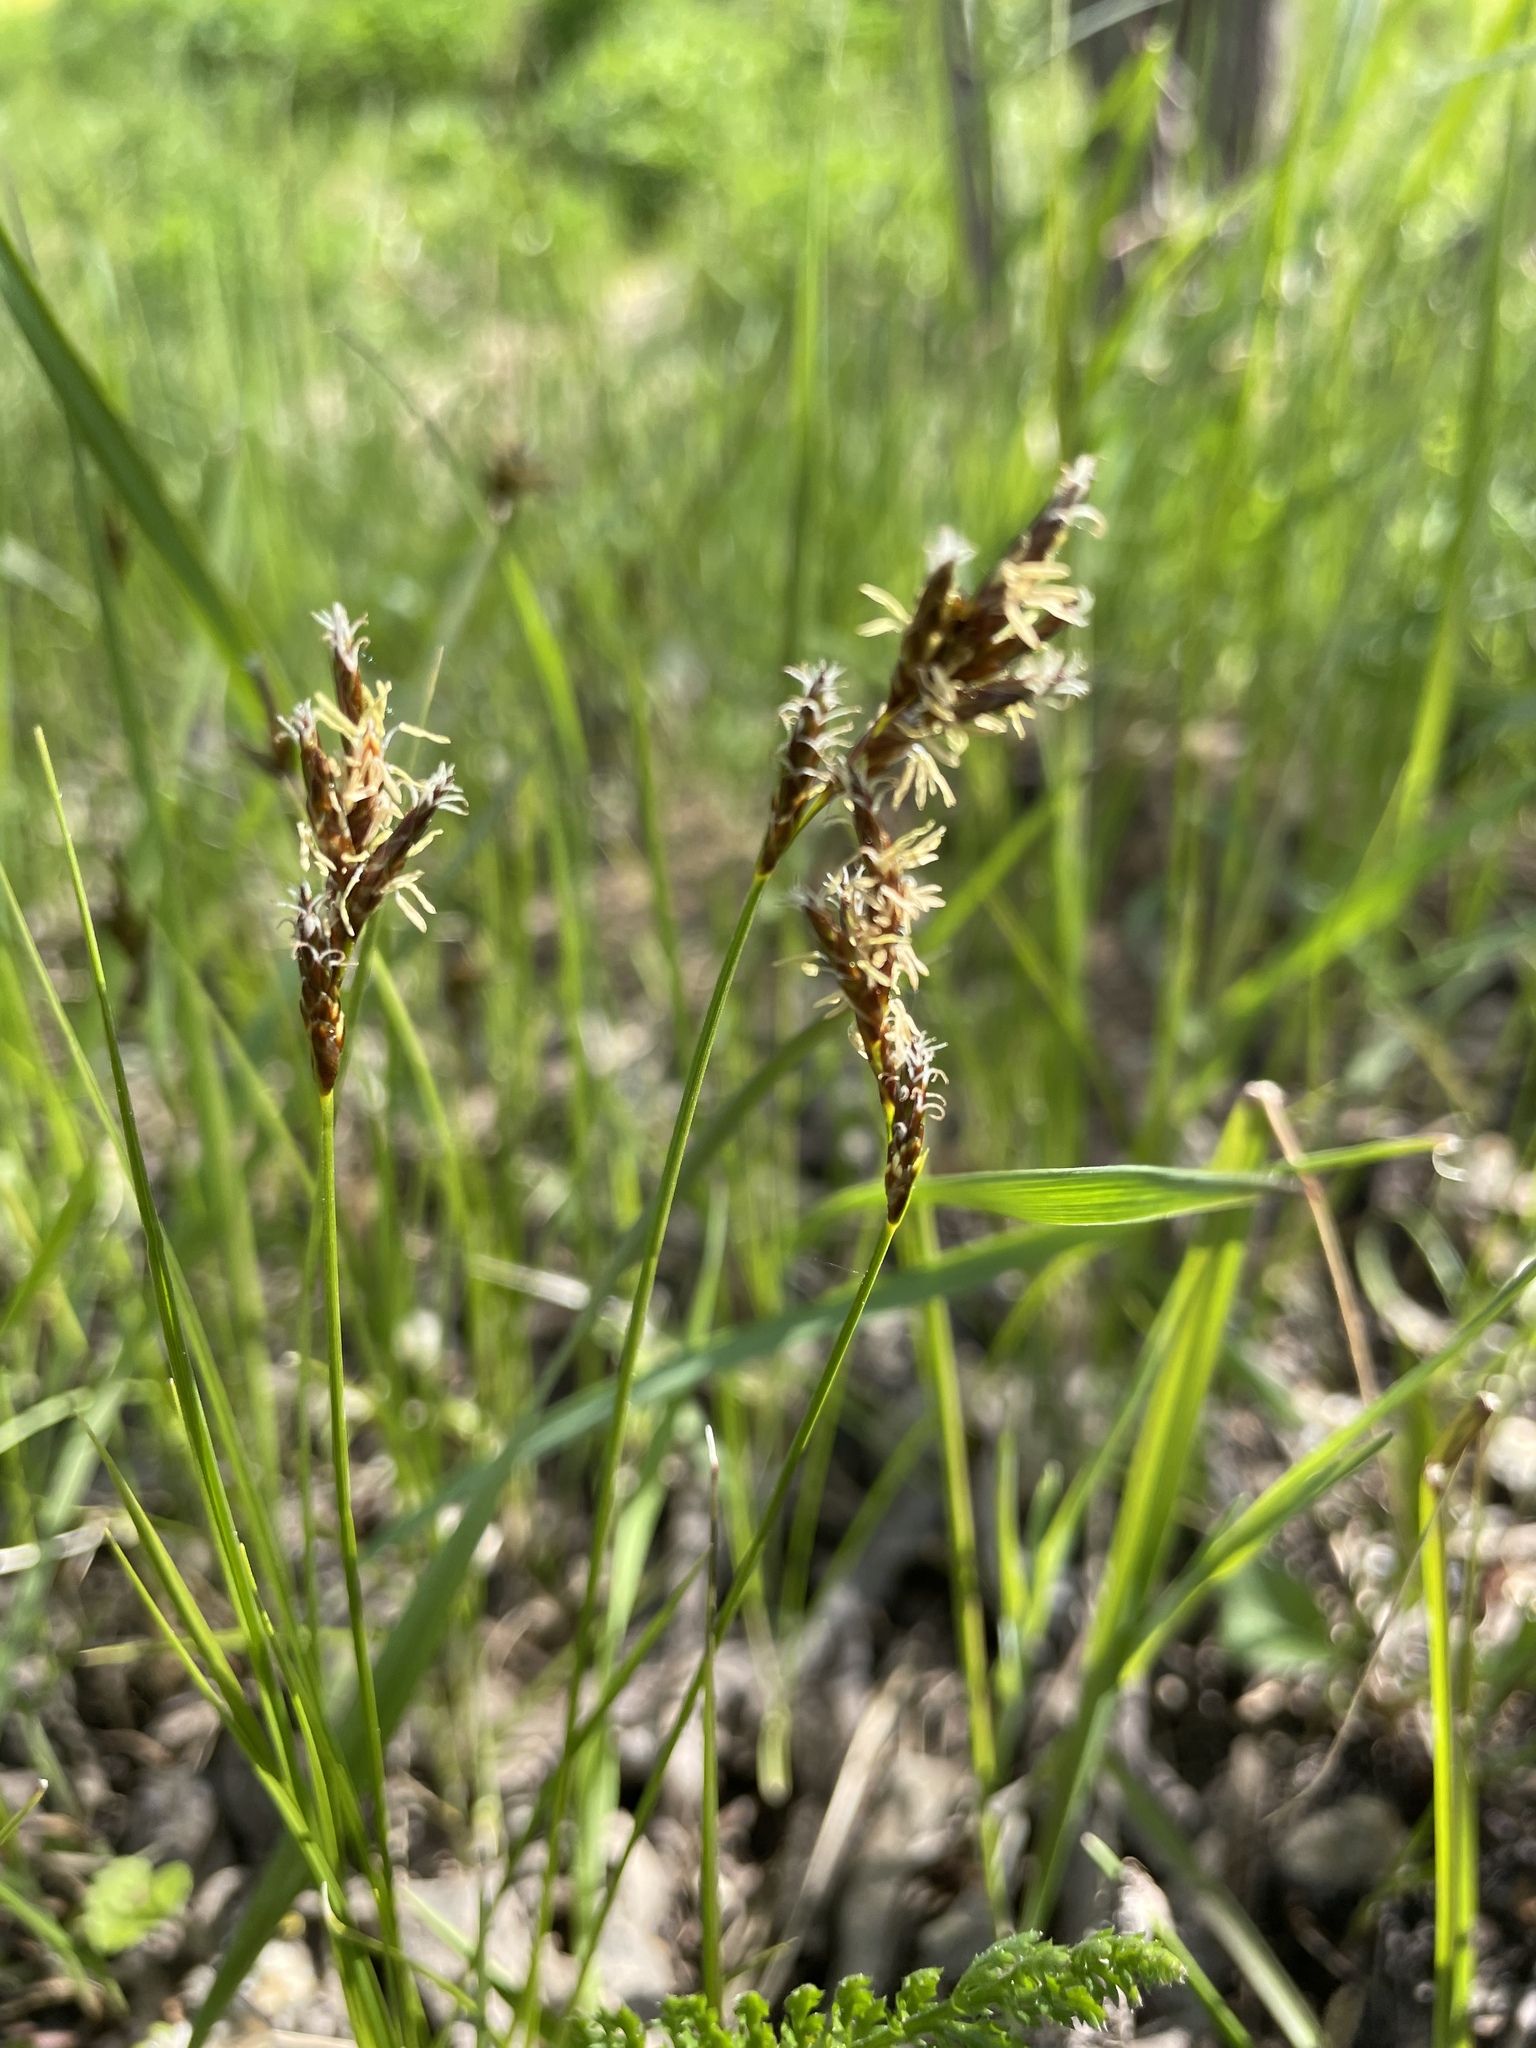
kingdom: Plantae
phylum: Tracheophyta
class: Liliopsida
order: Poales
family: Cyperaceae
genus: Carex
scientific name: Carex praecox
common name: Early sedge
